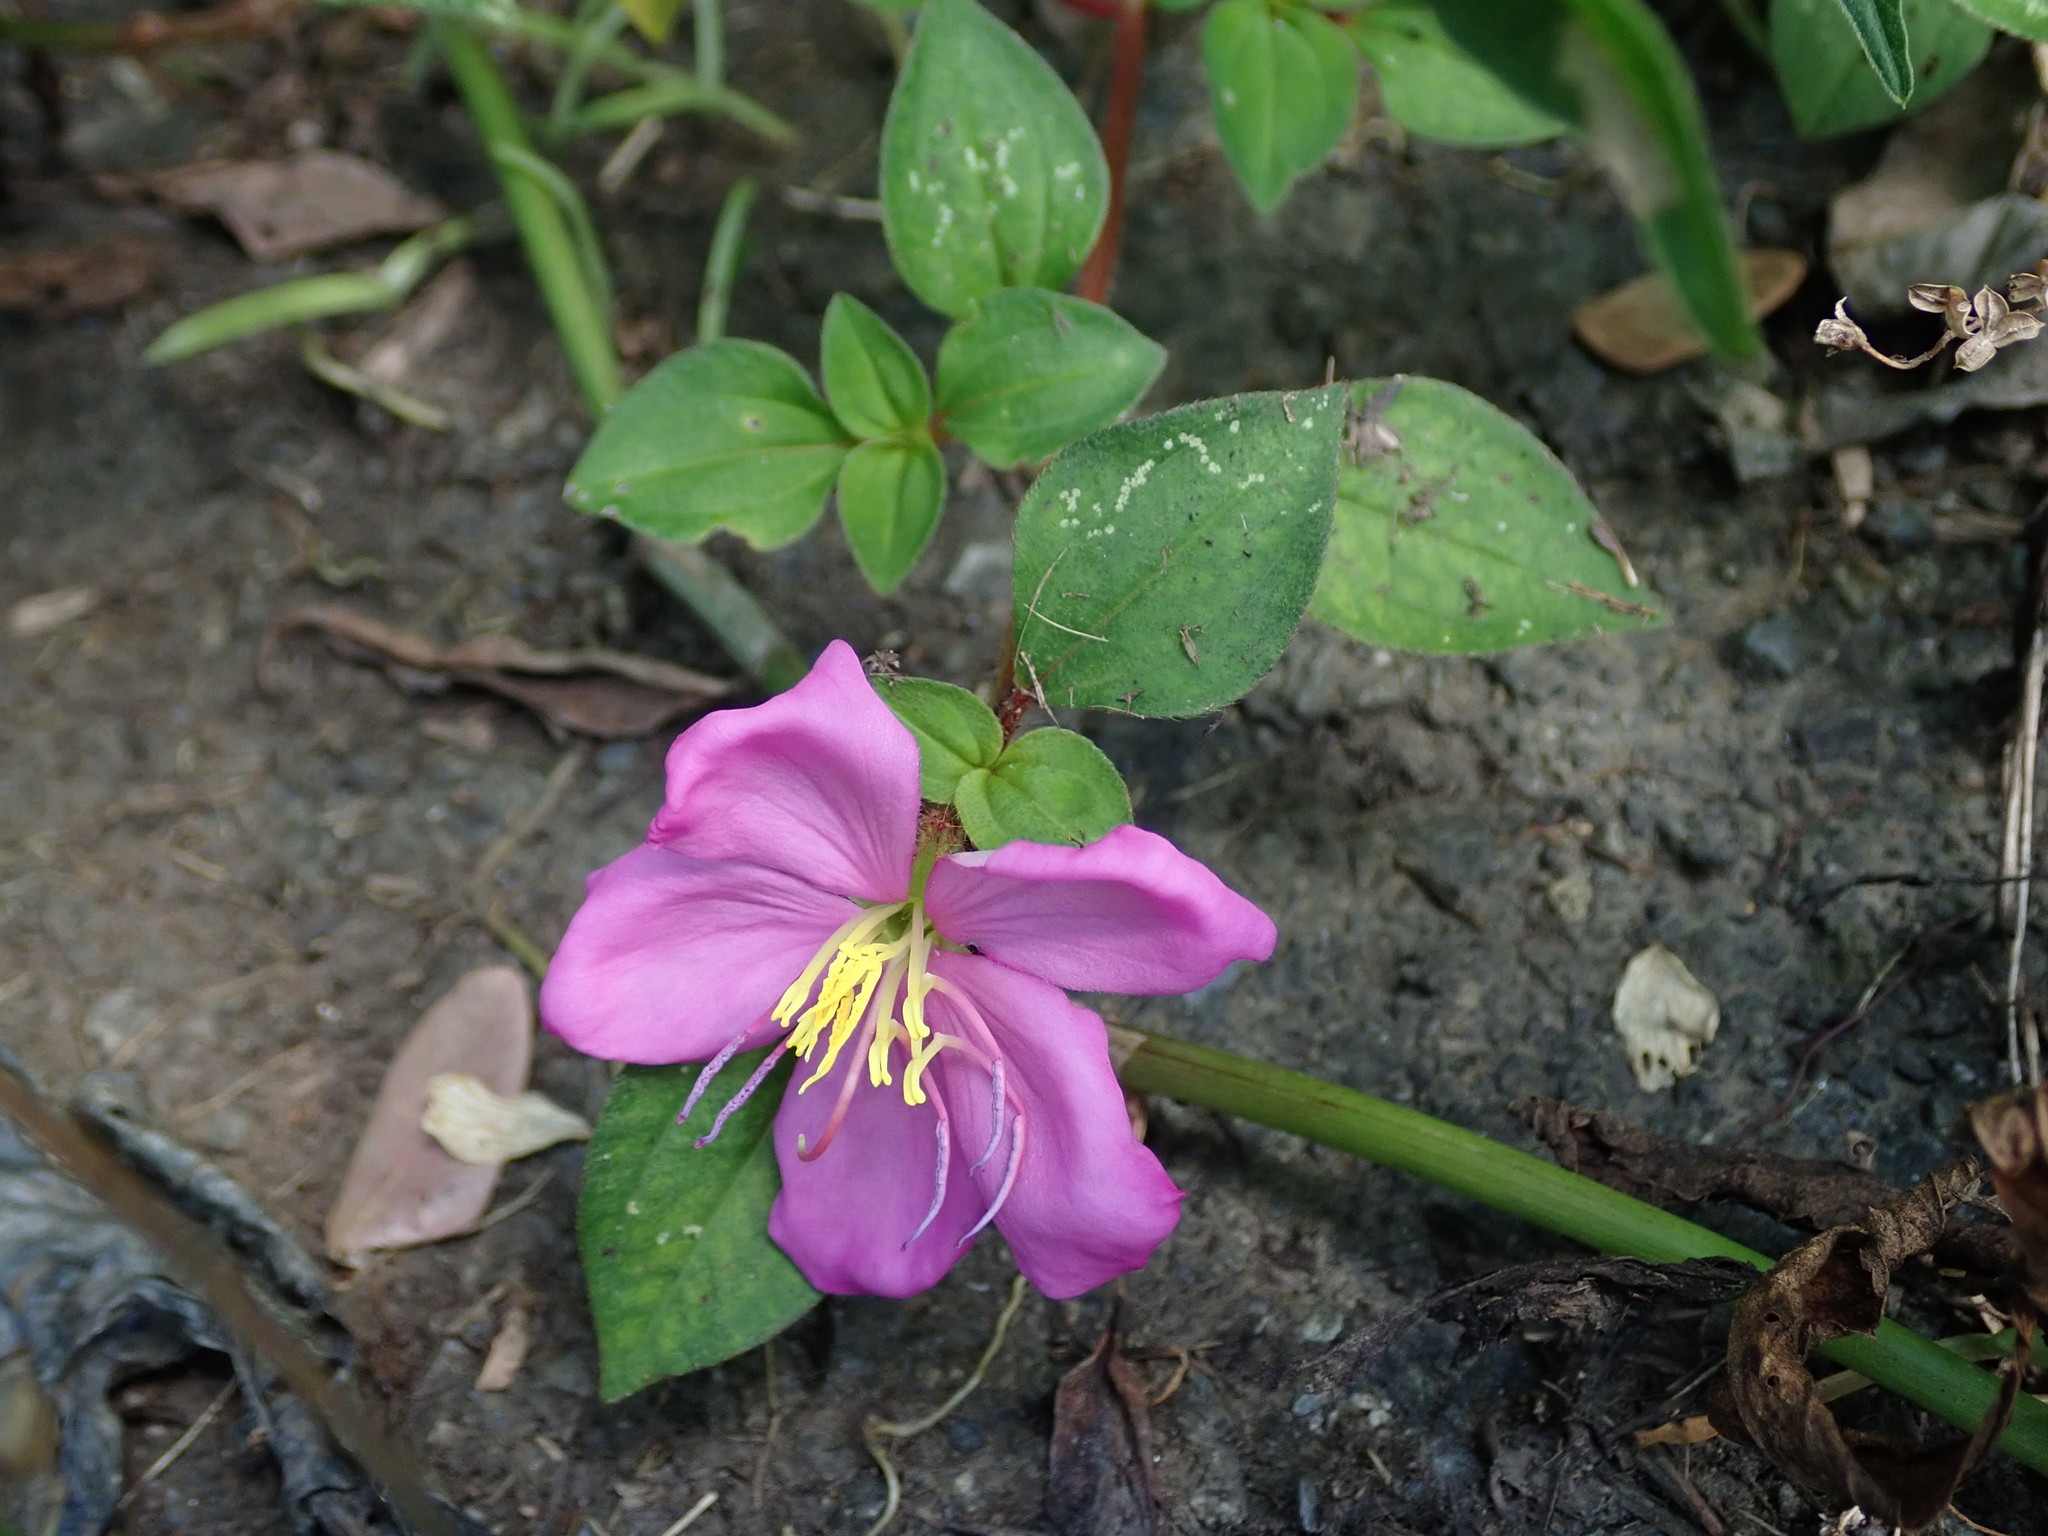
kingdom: Plantae
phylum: Tracheophyta
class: Magnoliopsida
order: Myrtales
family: Melastomataceae
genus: Heterotis
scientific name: Heterotis rotundifolia
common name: Pinklady
